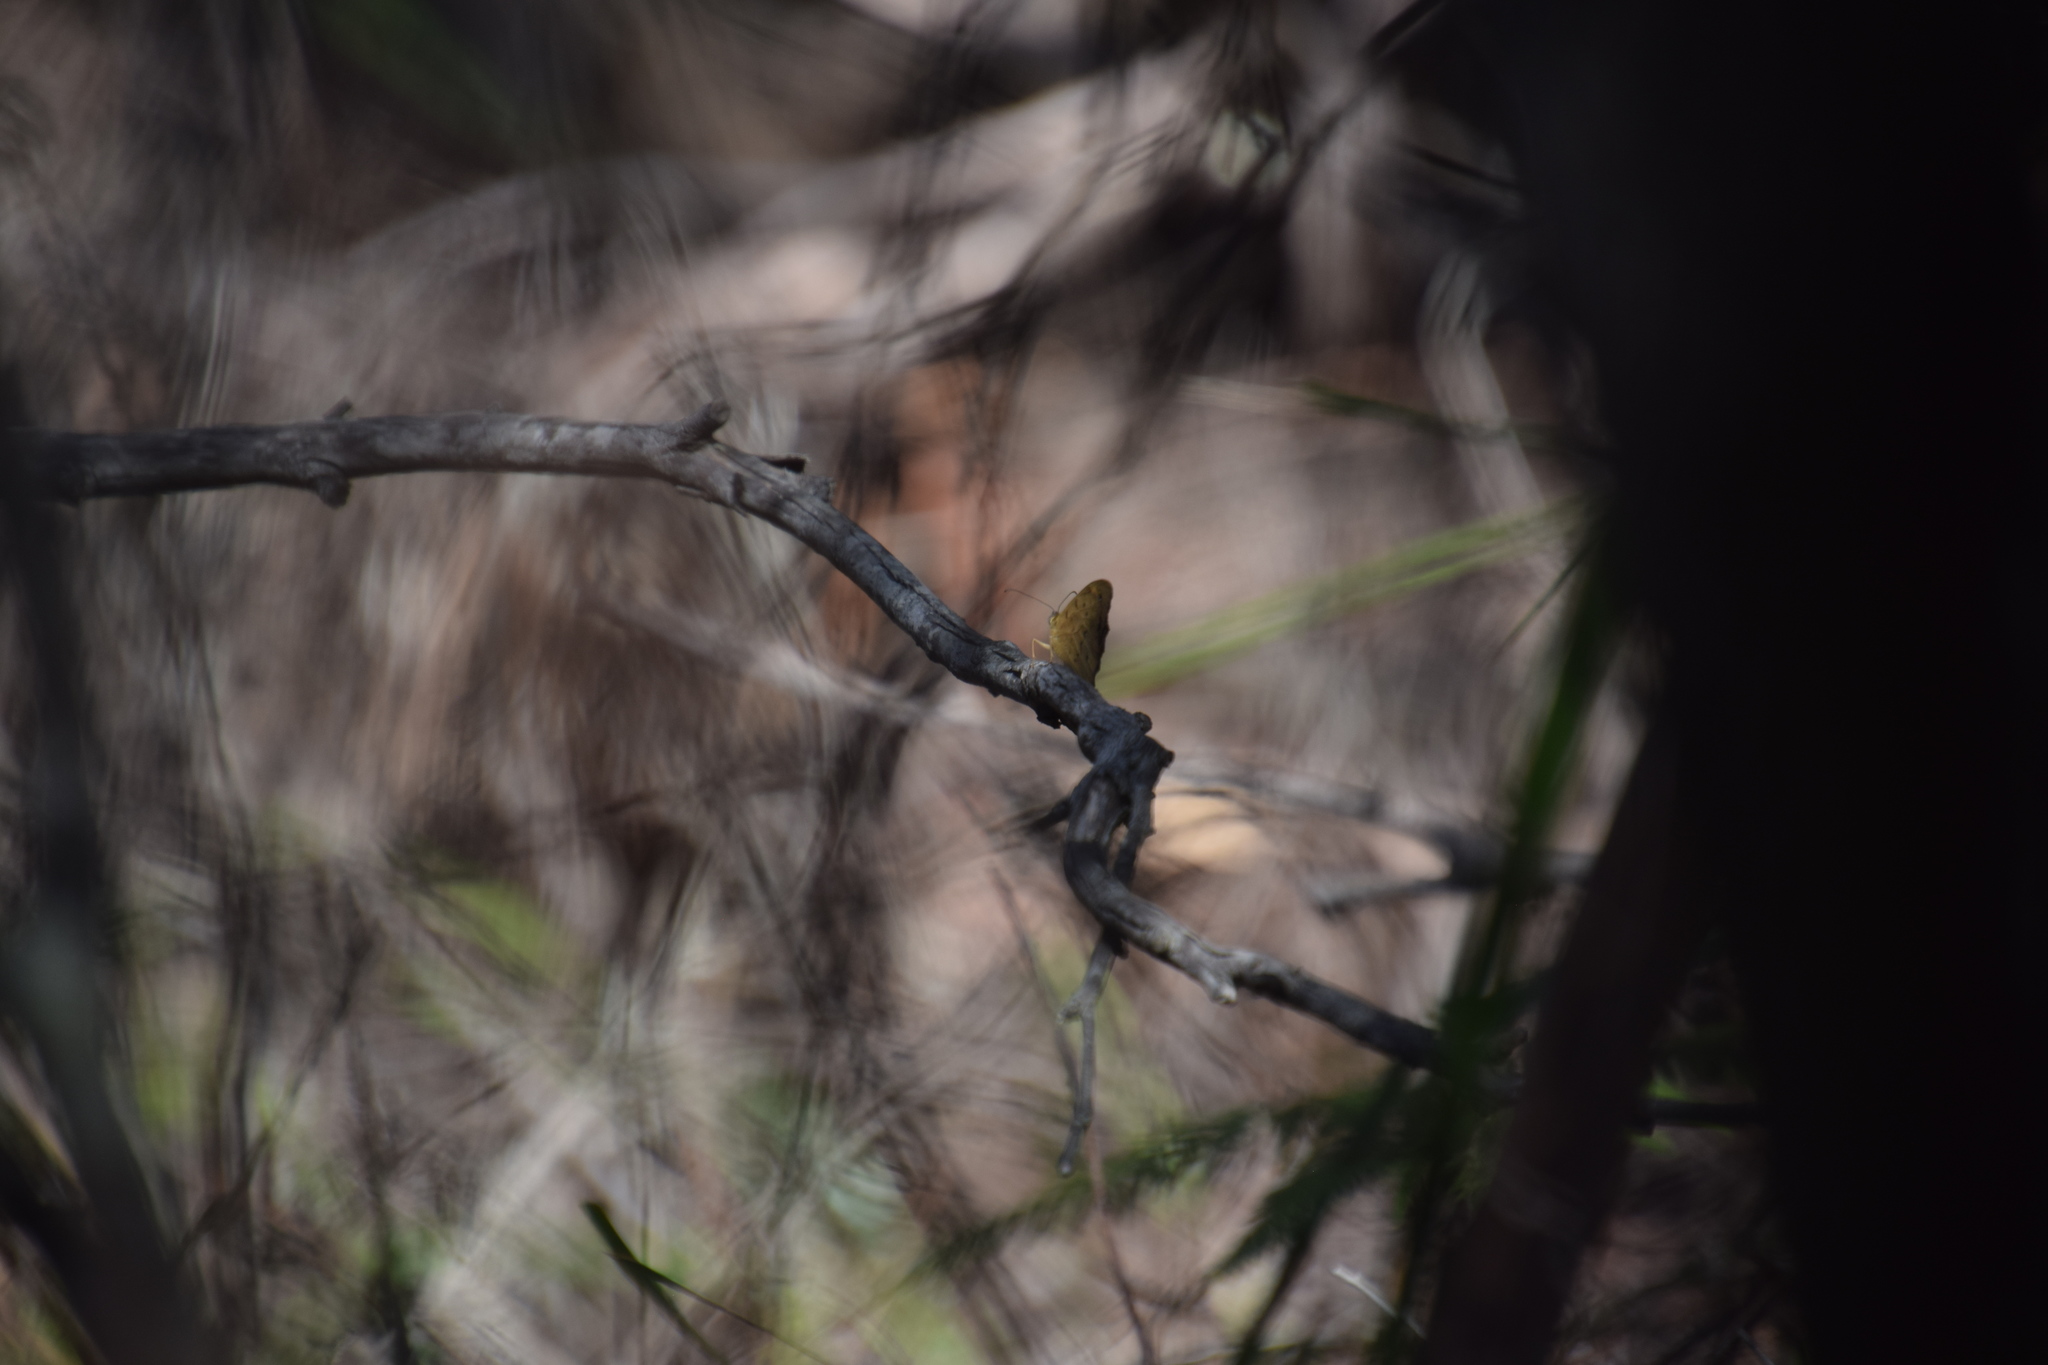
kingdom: Animalia
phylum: Arthropoda
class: Insecta
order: Lepidoptera
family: Nymphalidae
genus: Heteronympha
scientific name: Heteronympha merope
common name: Common brown
